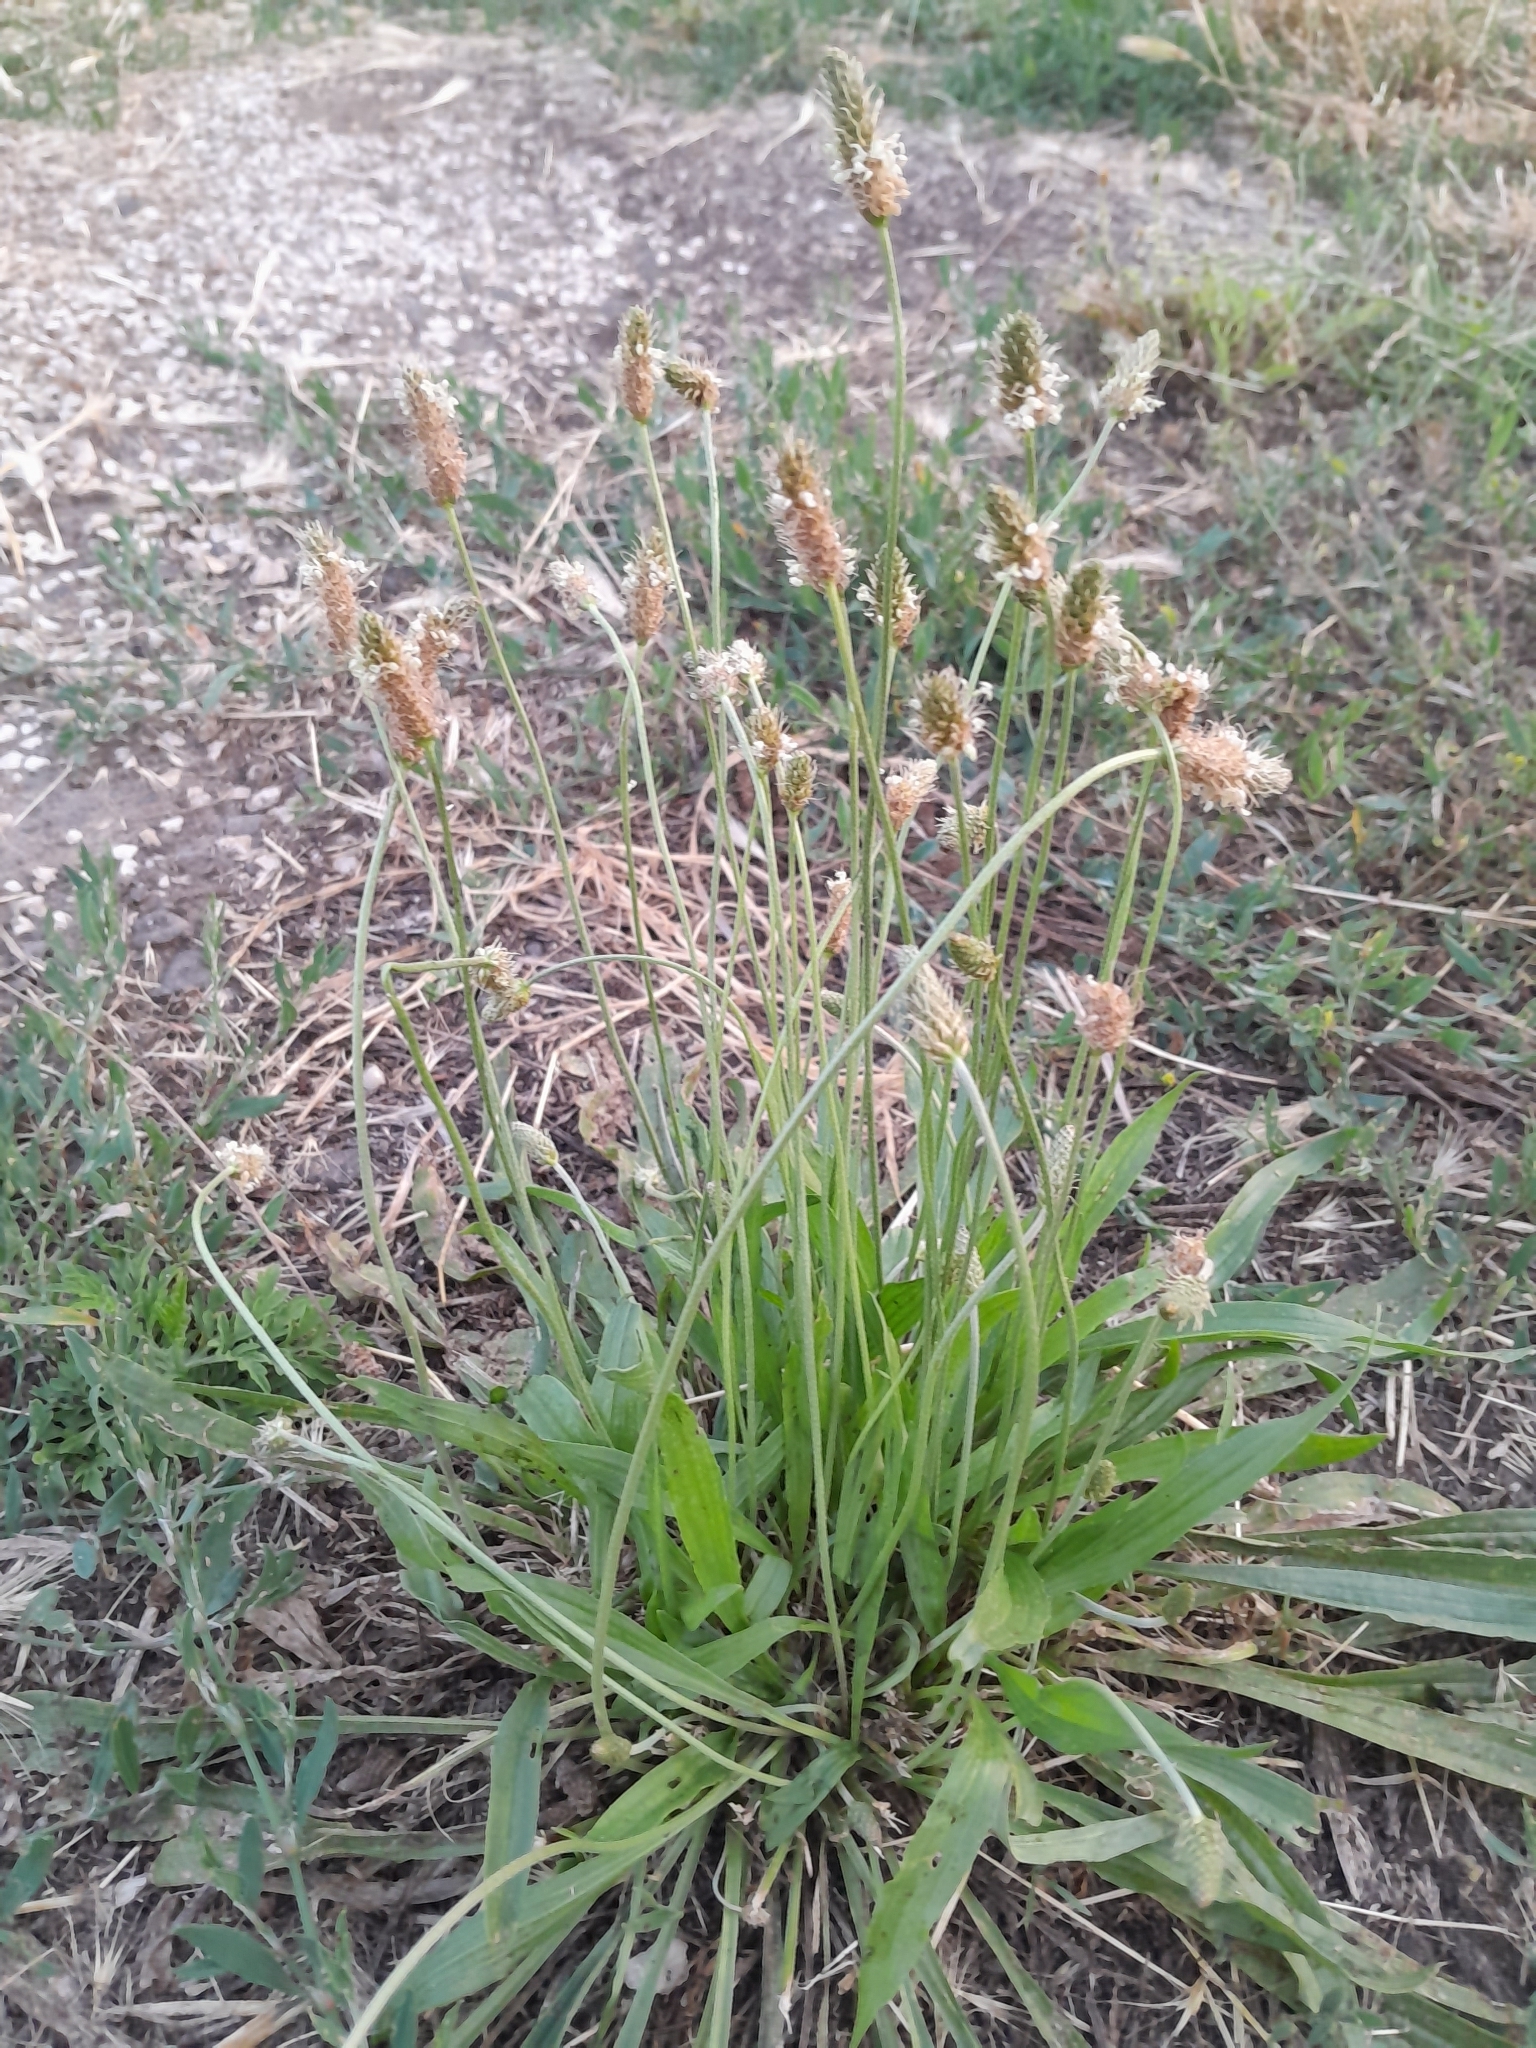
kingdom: Plantae
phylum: Tracheophyta
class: Magnoliopsida
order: Lamiales
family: Plantaginaceae
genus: Plantago
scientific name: Plantago lanceolata
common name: Ribwort plantain
